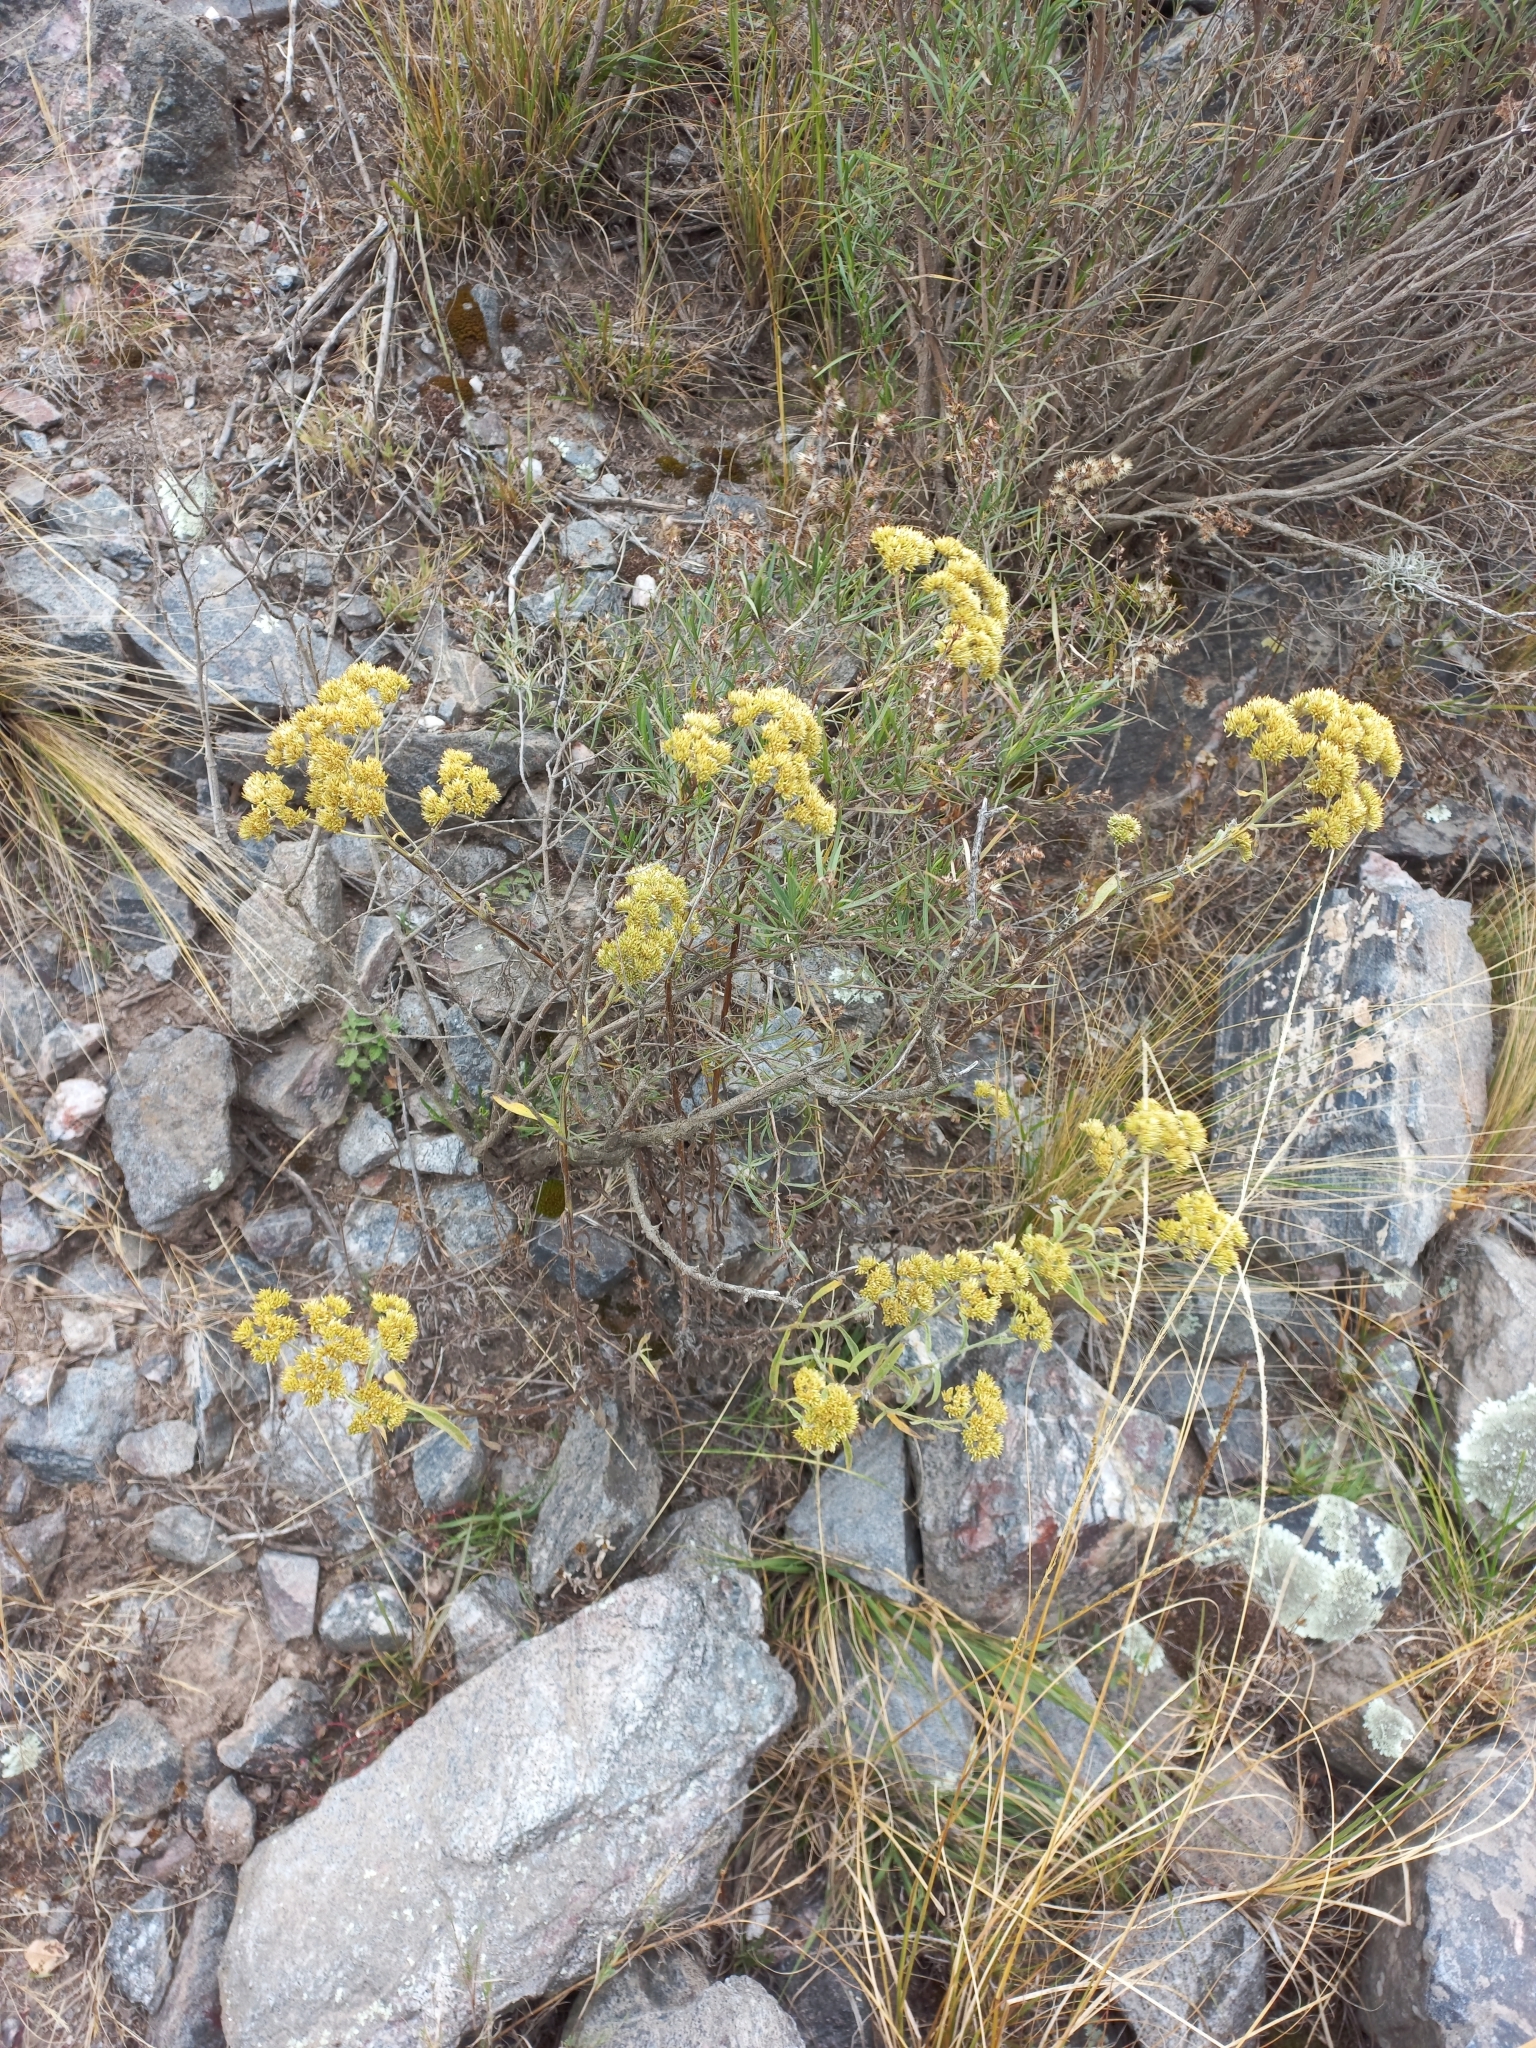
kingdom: Plantae
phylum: Tracheophyta
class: Magnoliopsida
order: Asterales
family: Asteraceae
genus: Achyrocline
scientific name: Achyrocline satureioides
